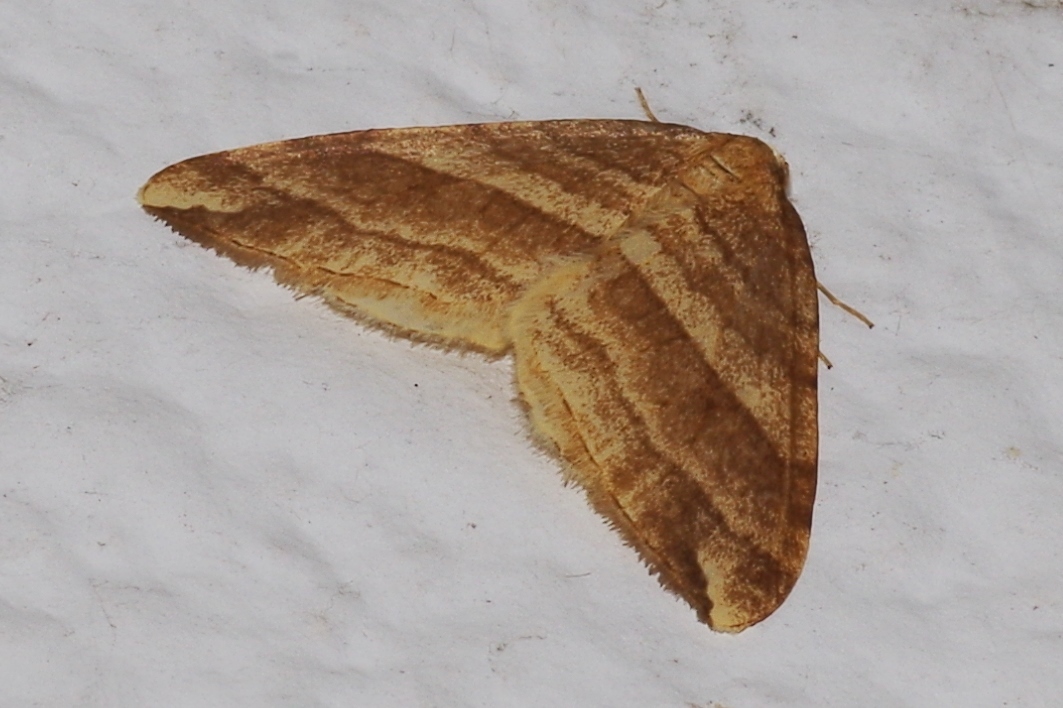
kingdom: Animalia
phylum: Arthropoda
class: Insecta
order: Lepidoptera
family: Geometridae
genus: Nothoporinia
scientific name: Nothoporinia mediolineata
